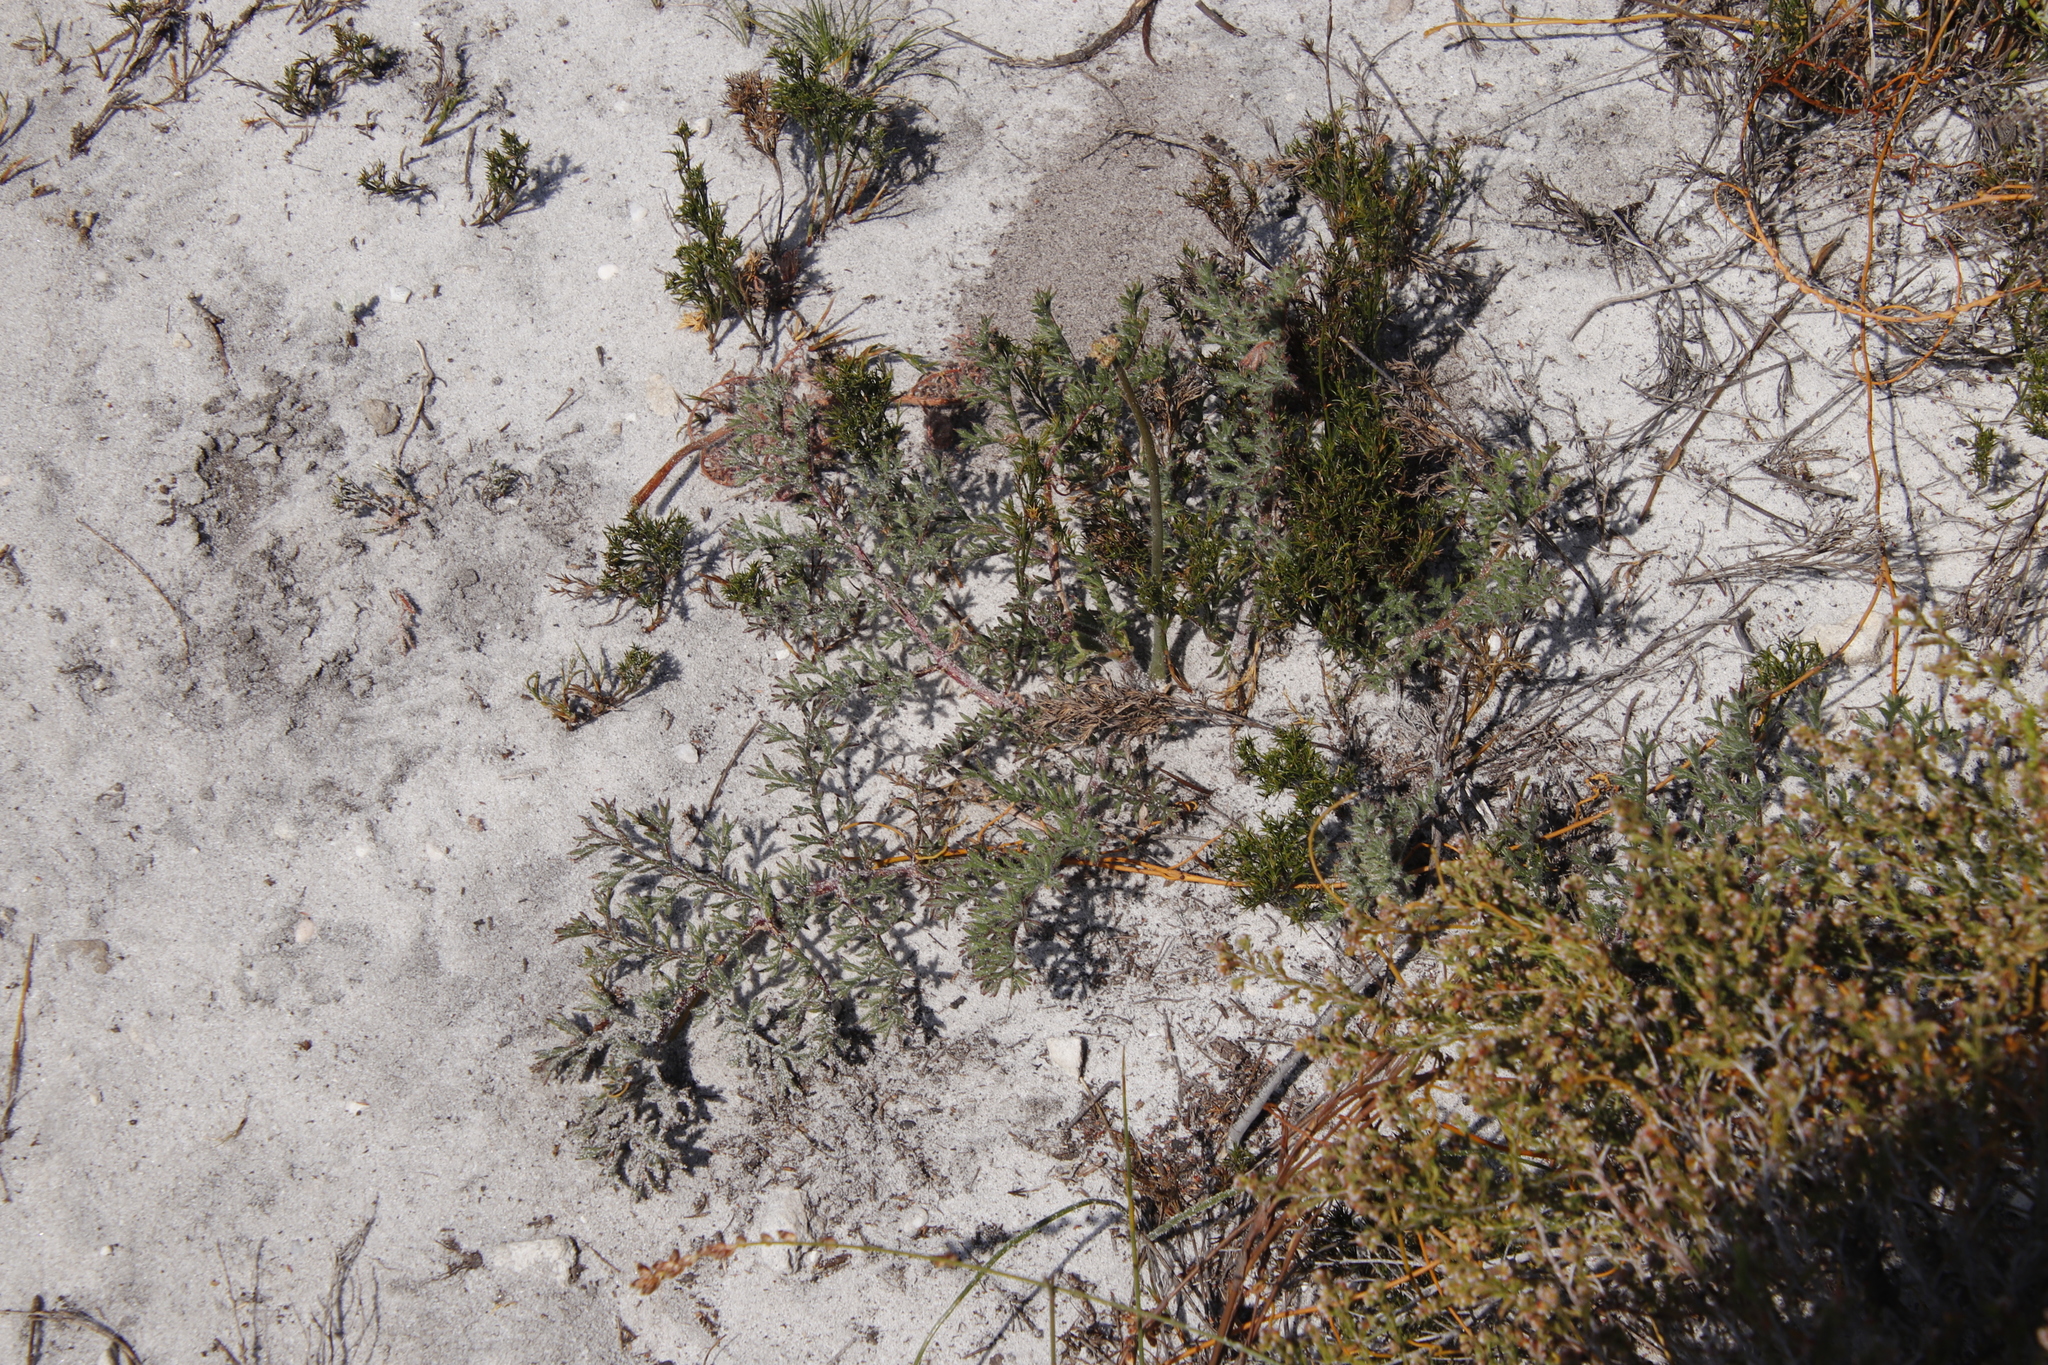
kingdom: Plantae
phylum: Tracheophyta
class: Magnoliopsida
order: Geraniales
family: Geraniaceae
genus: Pelargonium
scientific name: Pelargonium triste
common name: Night-scent pelargonium
